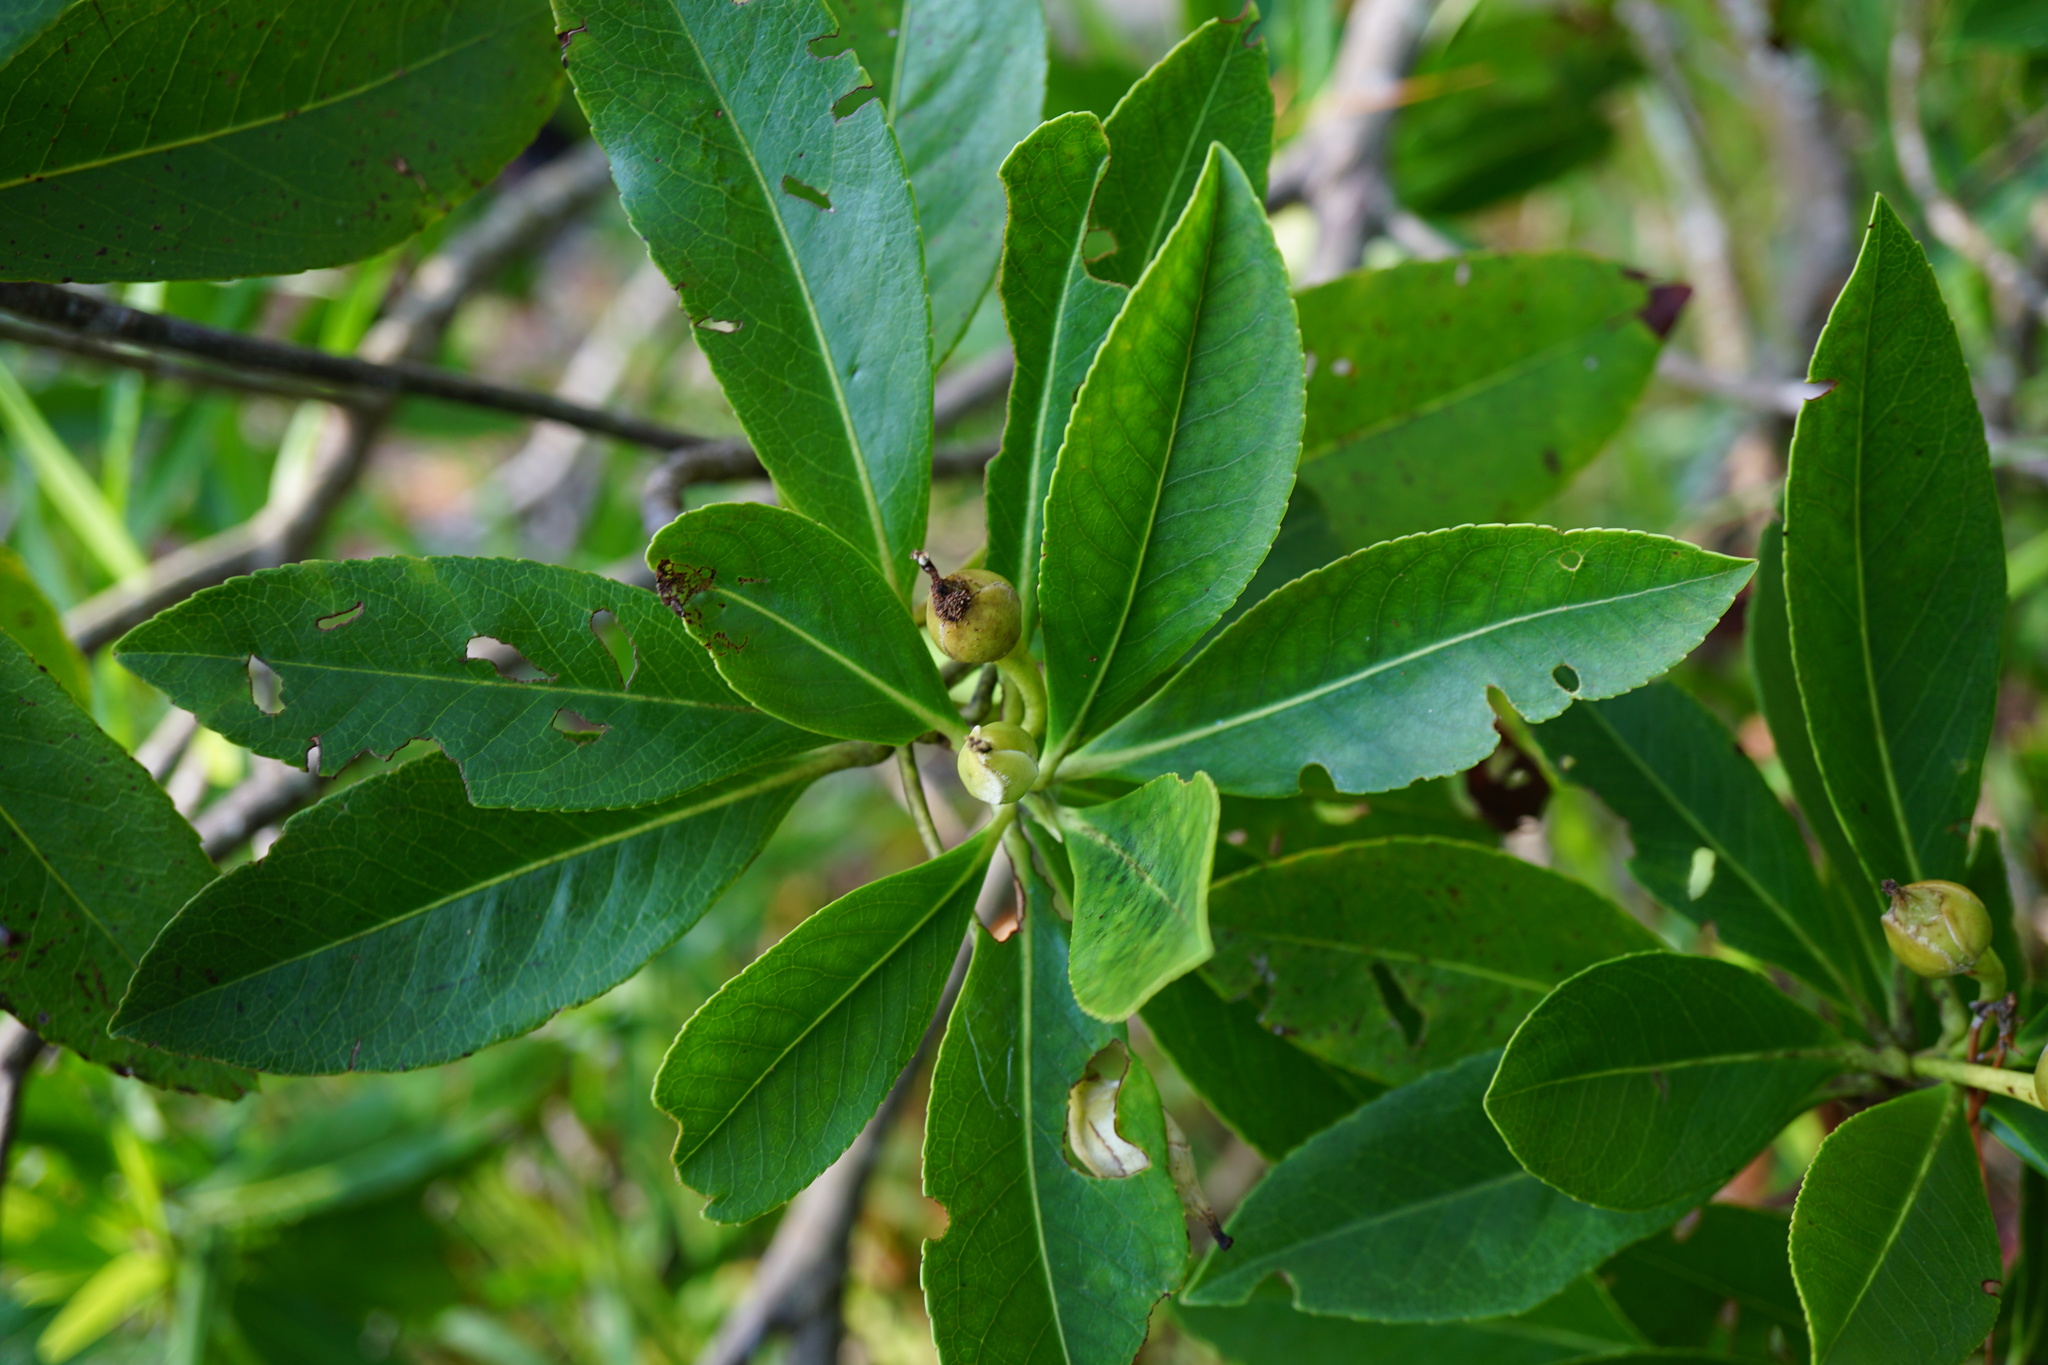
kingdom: Plantae
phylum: Tracheophyta
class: Magnoliopsida
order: Ericales
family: Theaceae
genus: Gordonia
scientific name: Gordonia lasianthus
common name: Loblolly bay
